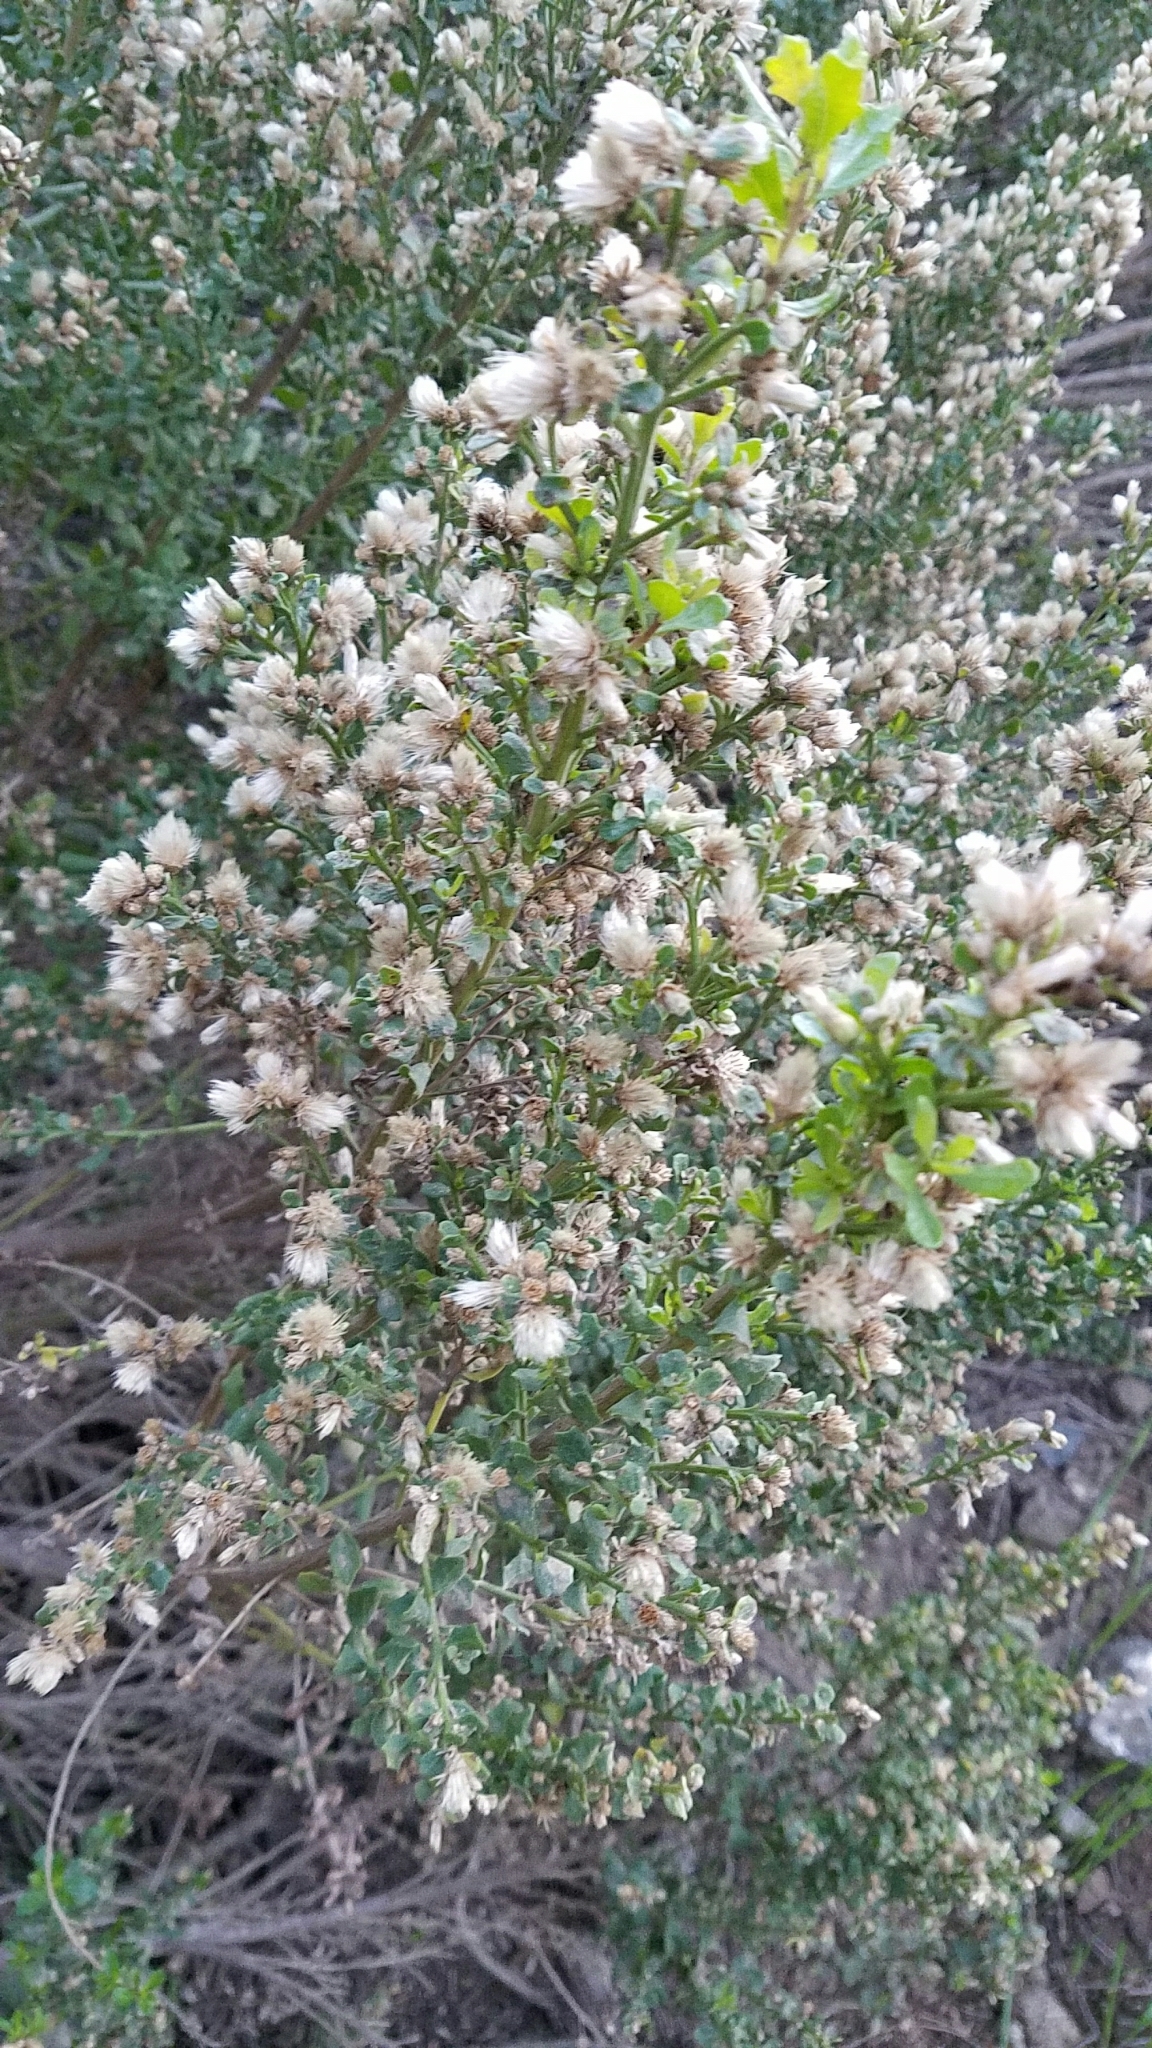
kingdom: Plantae
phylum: Tracheophyta
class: Magnoliopsida
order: Asterales
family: Asteraceae
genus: Baccharis
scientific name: Baccharis pilularis
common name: Coyotebrush
